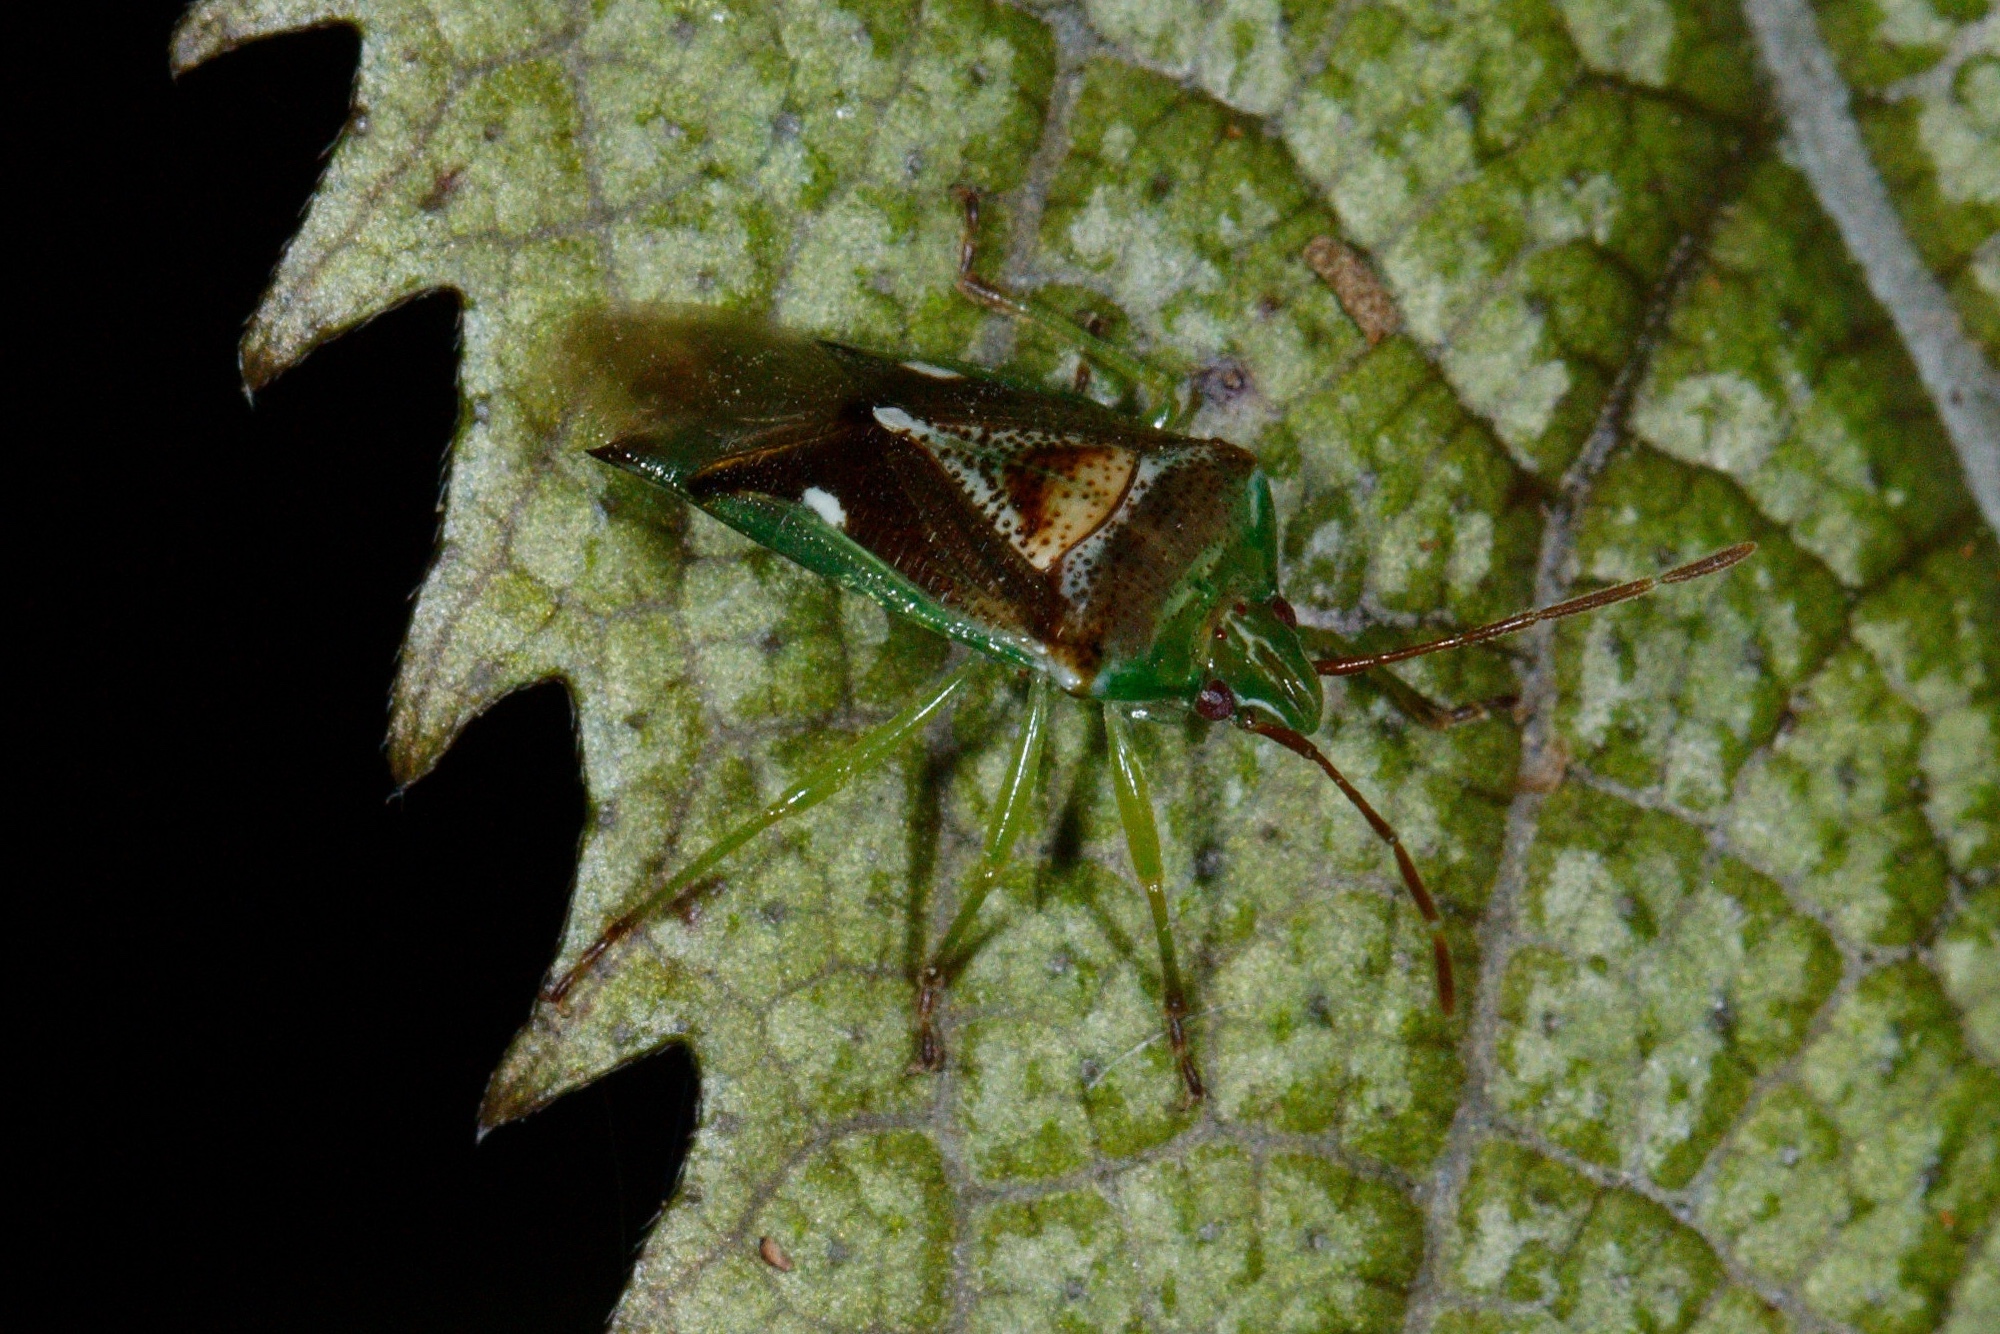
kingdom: Animalia
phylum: Arthropoda
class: Insecta
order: Hemiptera
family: Acanthosomatidae
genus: Oncacontias
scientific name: Oncacontias vittatus
